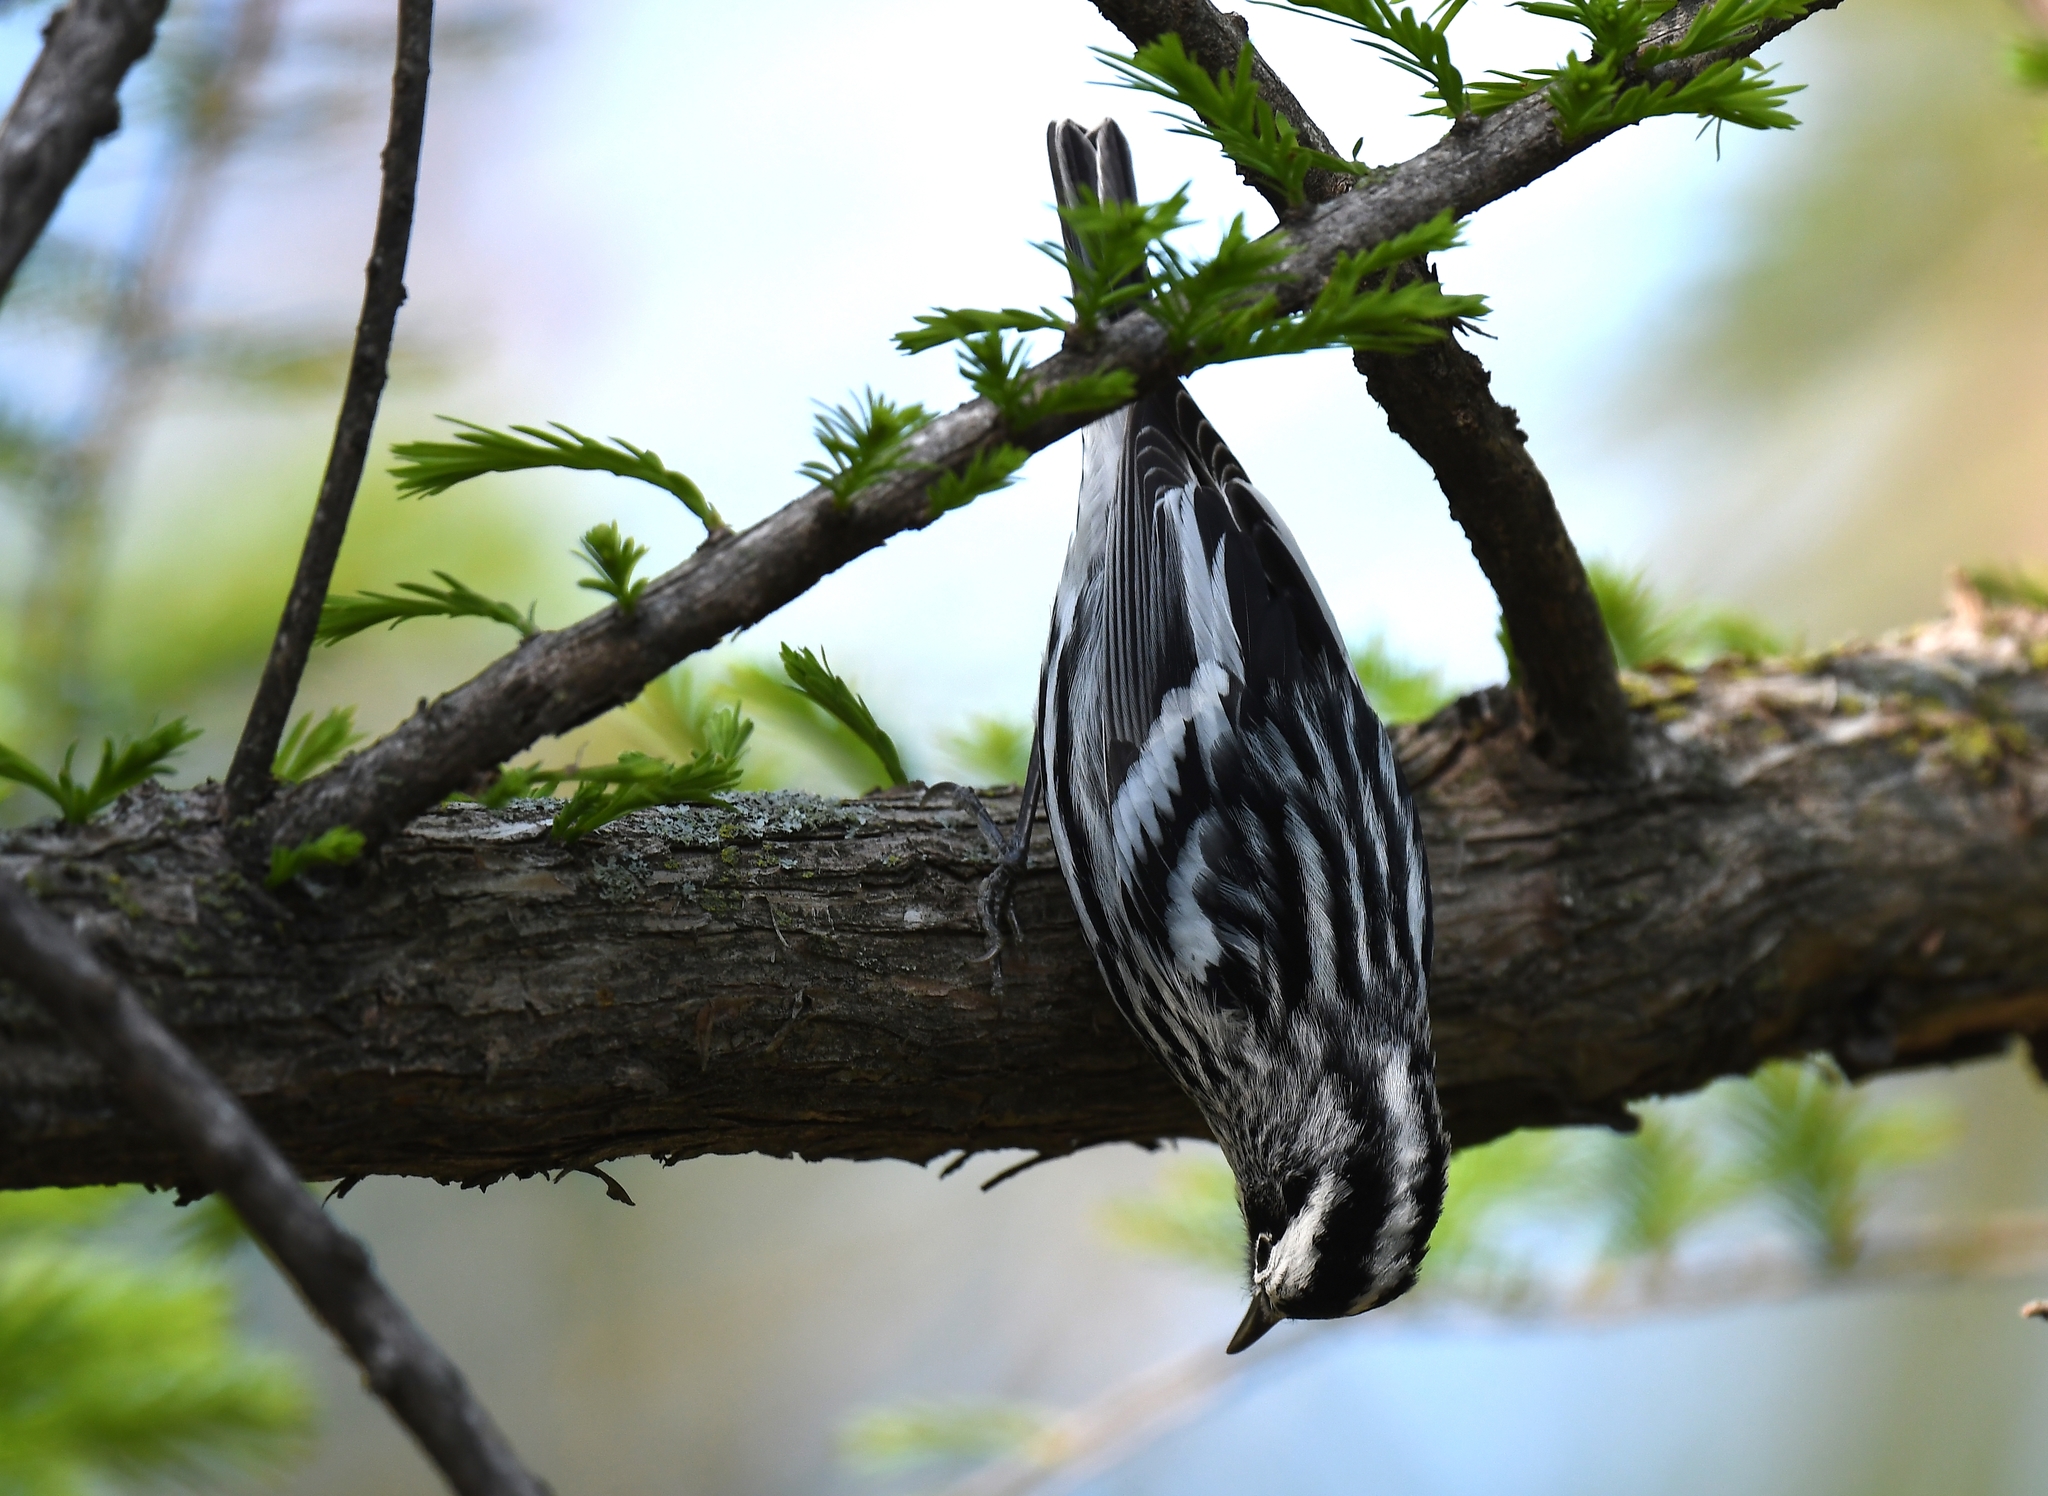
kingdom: Animalia
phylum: Chordata
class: Aves
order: Passeriformes
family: Parulidae
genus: Mniotilta
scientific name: Mniotilta varia
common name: Black-and-white warbler
